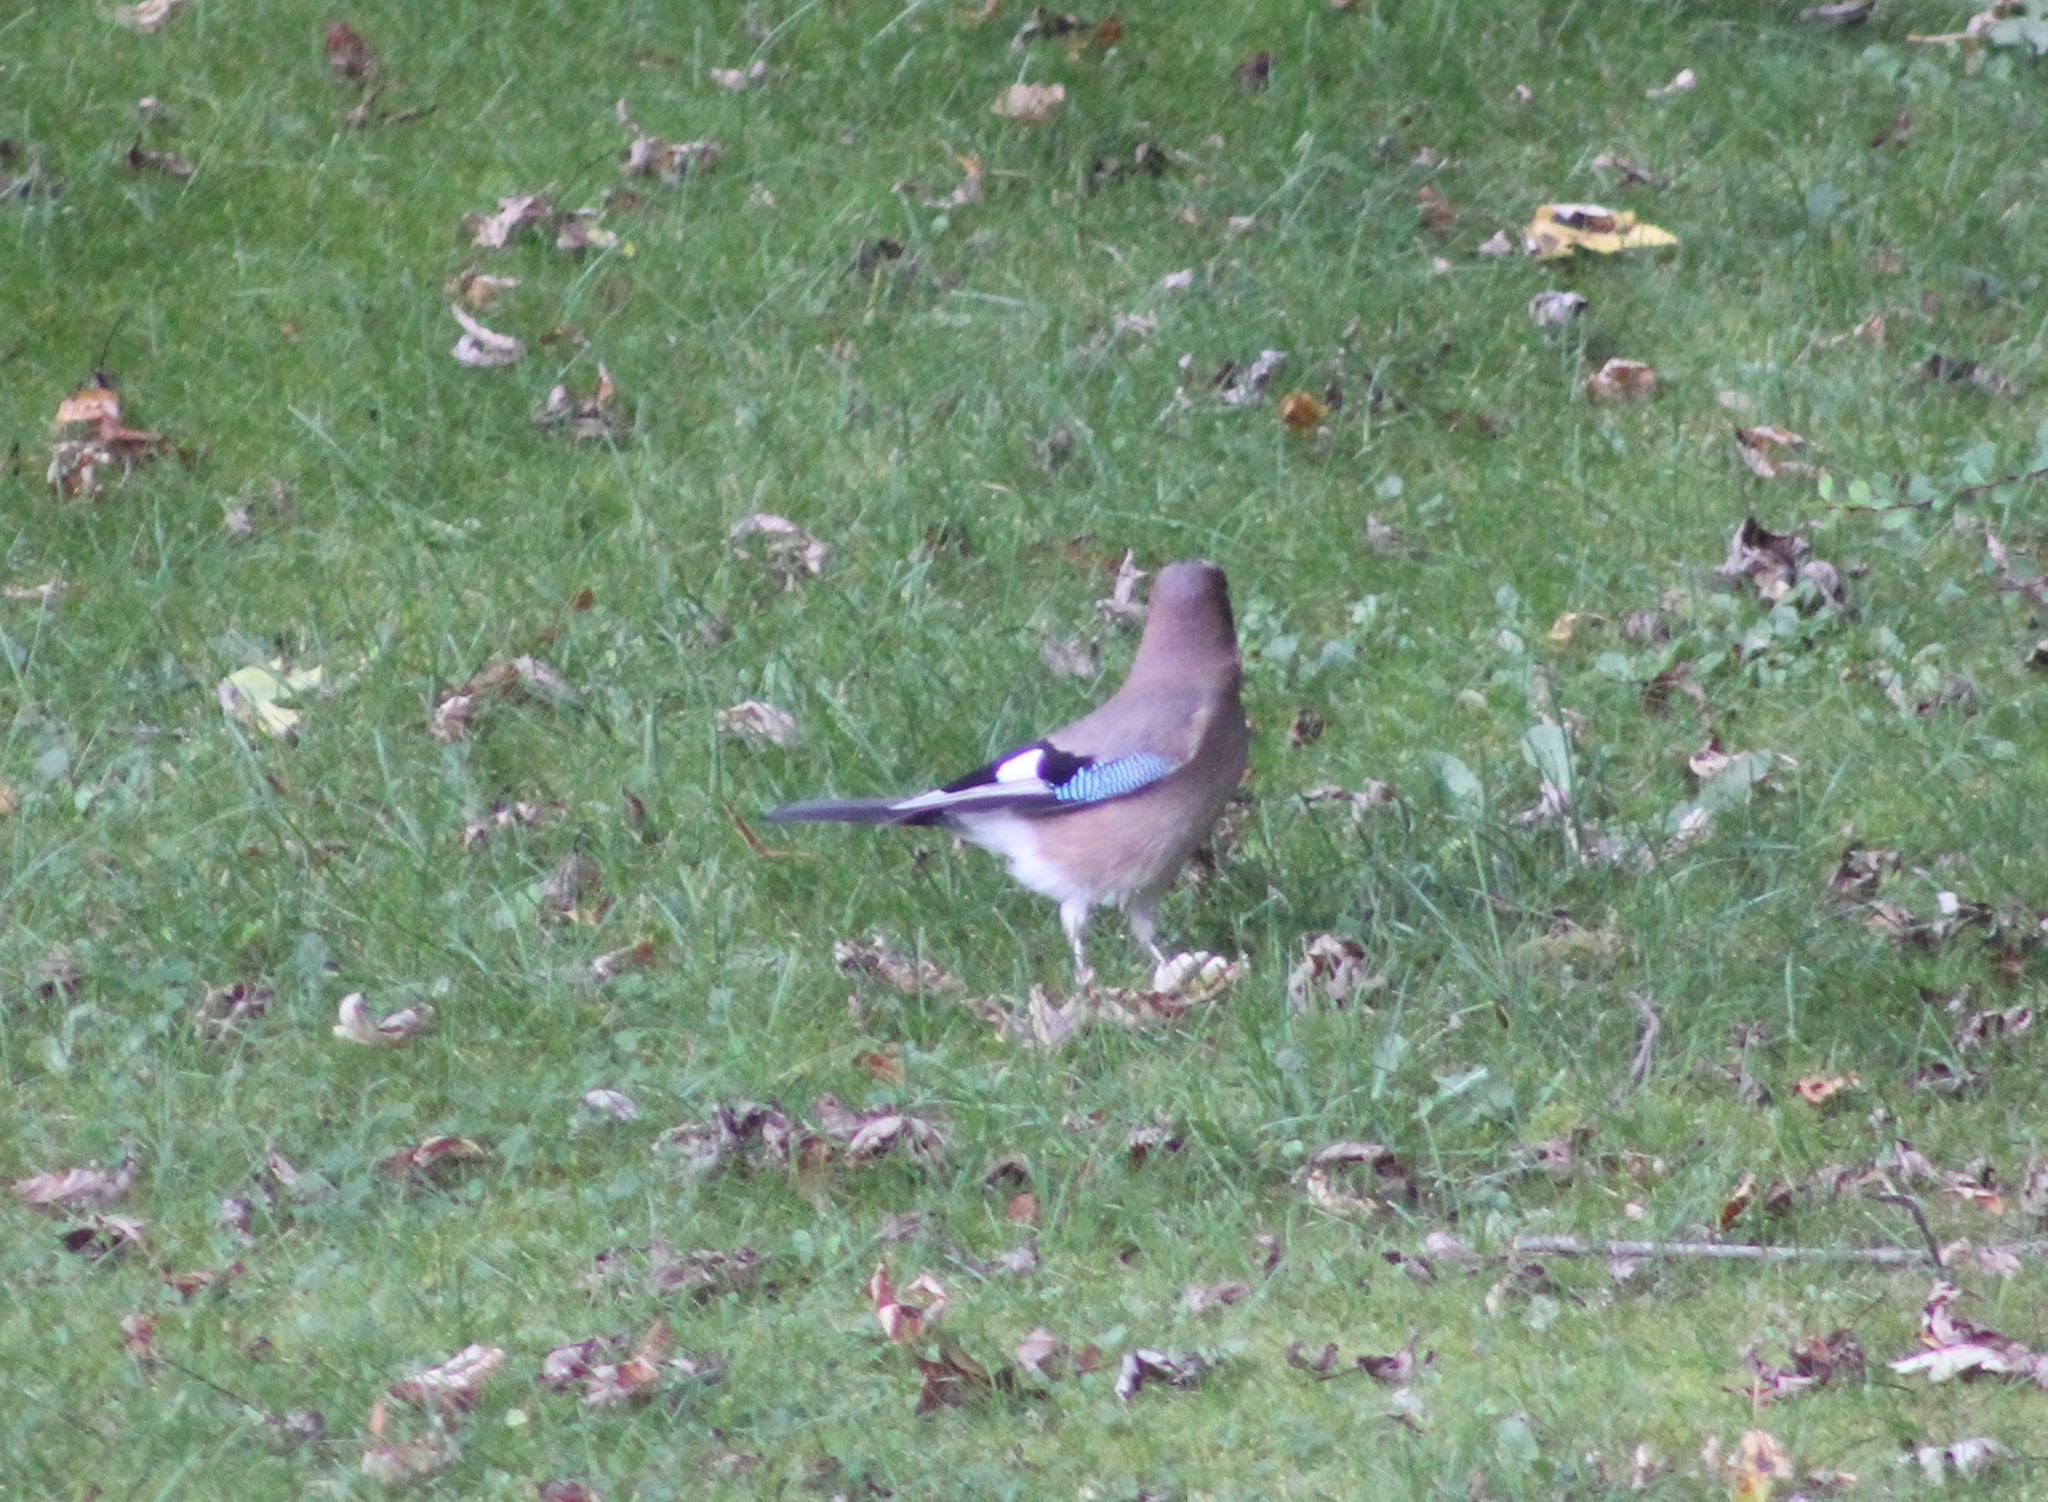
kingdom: Animalia
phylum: Chordata
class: Aves
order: Passeriformes
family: Corvidae
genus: Garrulus
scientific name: Garrulus glandarius
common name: Eurasian jay
